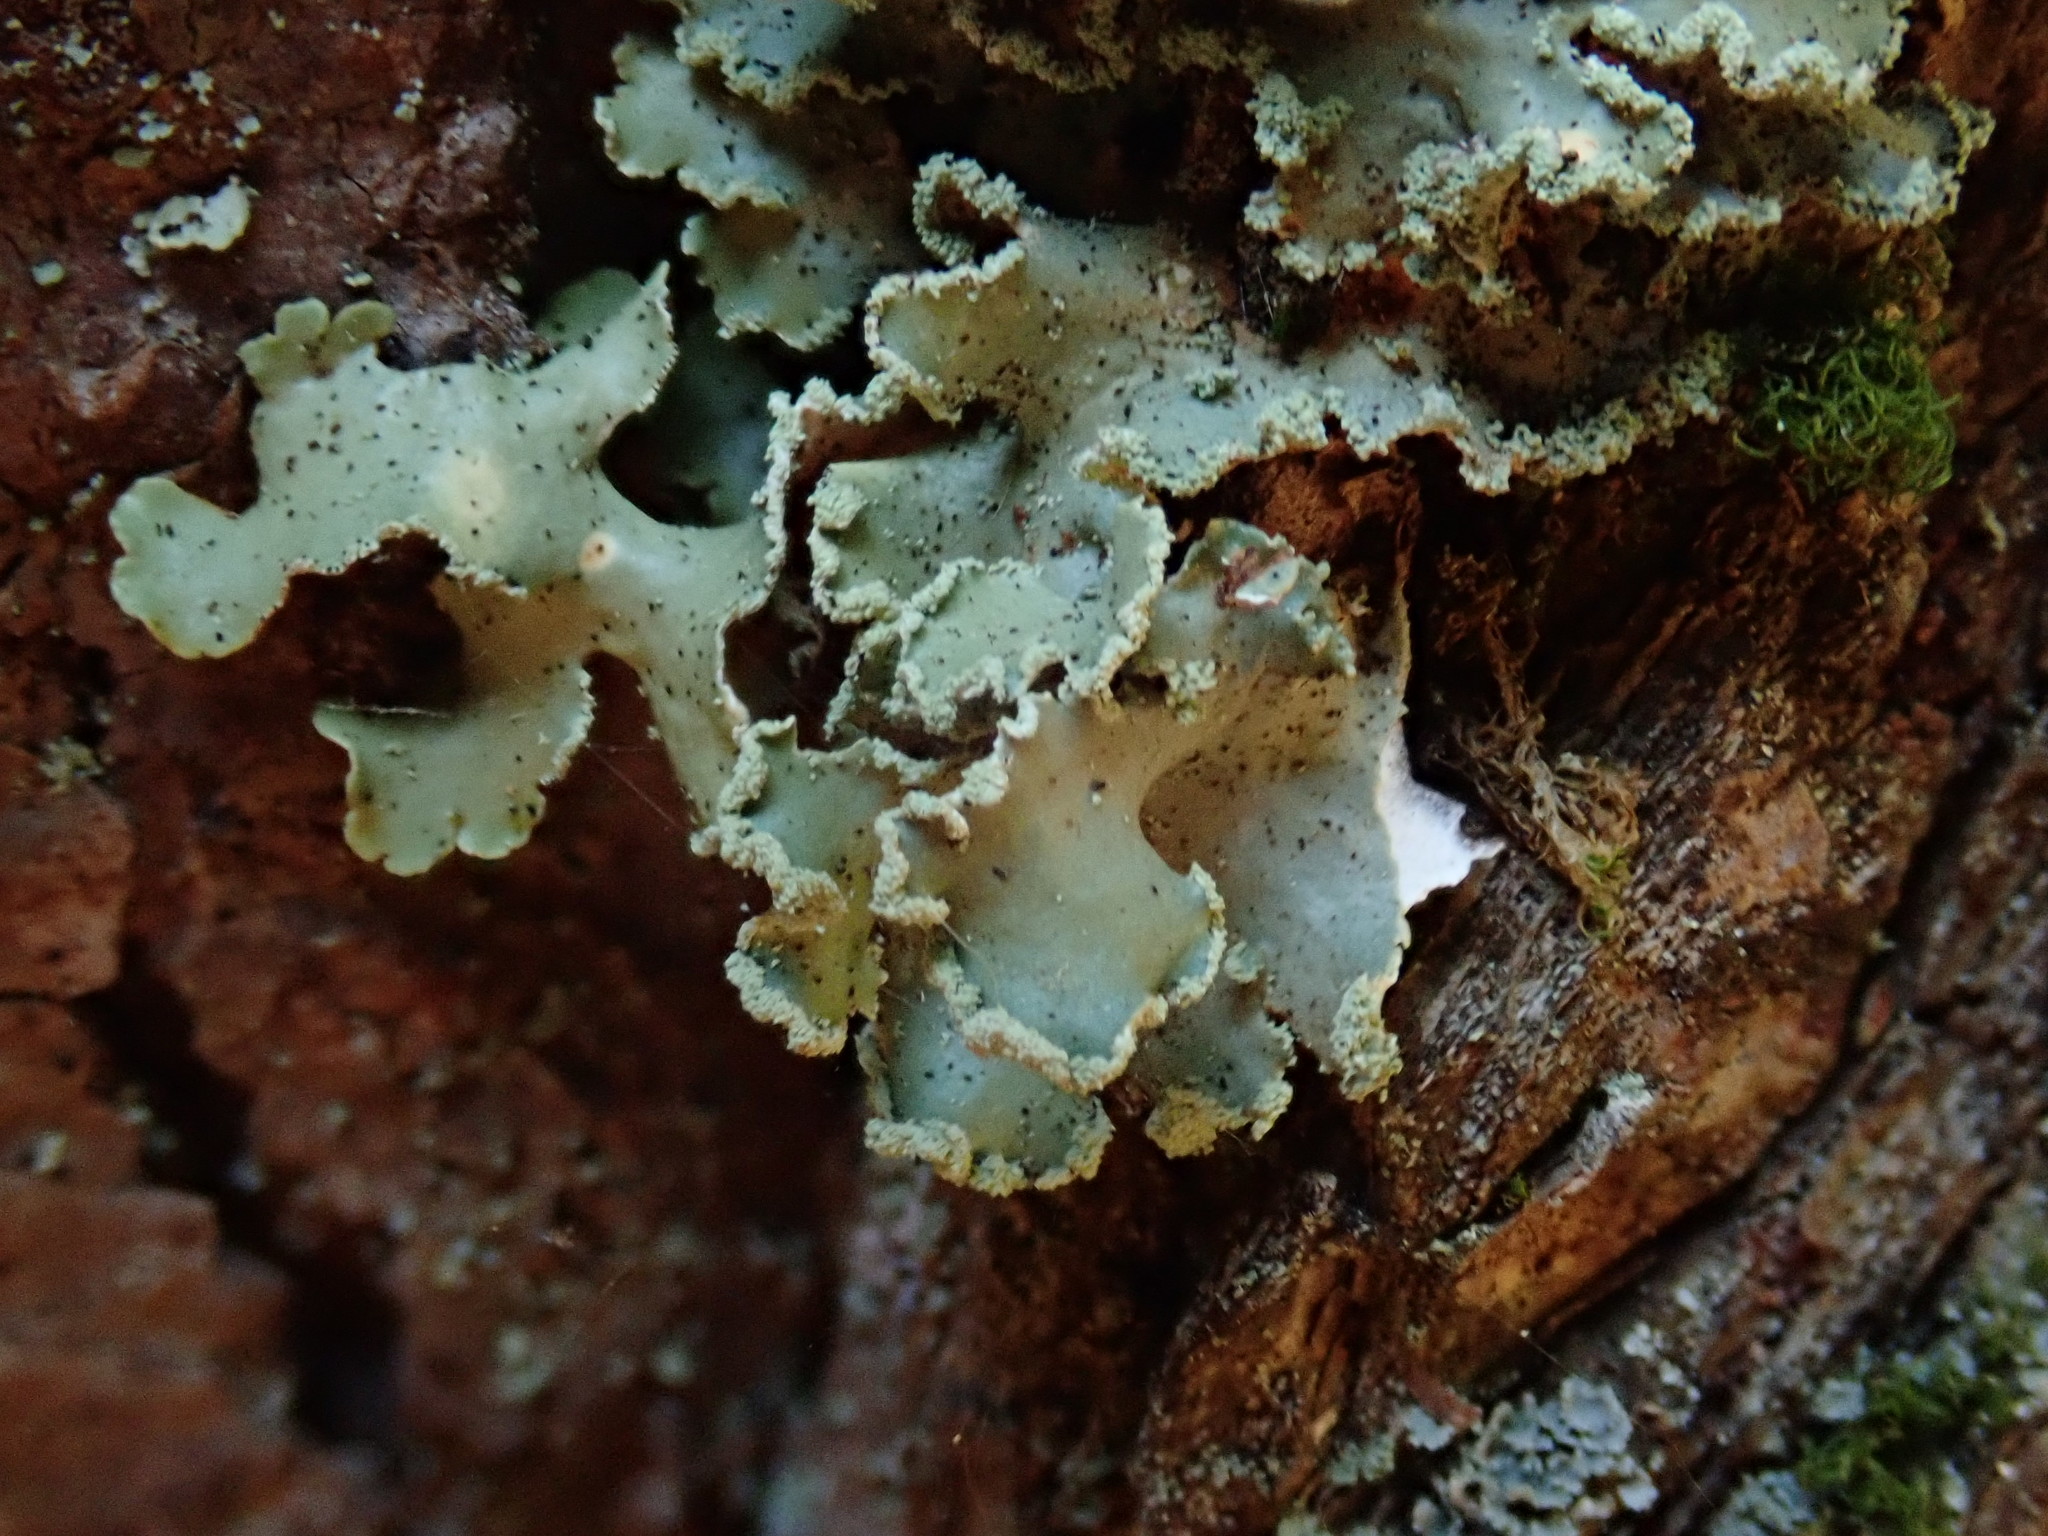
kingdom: Fungi
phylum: Ascomycota
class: Lecanoromycetes
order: Lecanorales
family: Parmeliaceae
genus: Usnocetraria
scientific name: Usnocetraria oakesiana
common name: Yellow ribbon lichen
